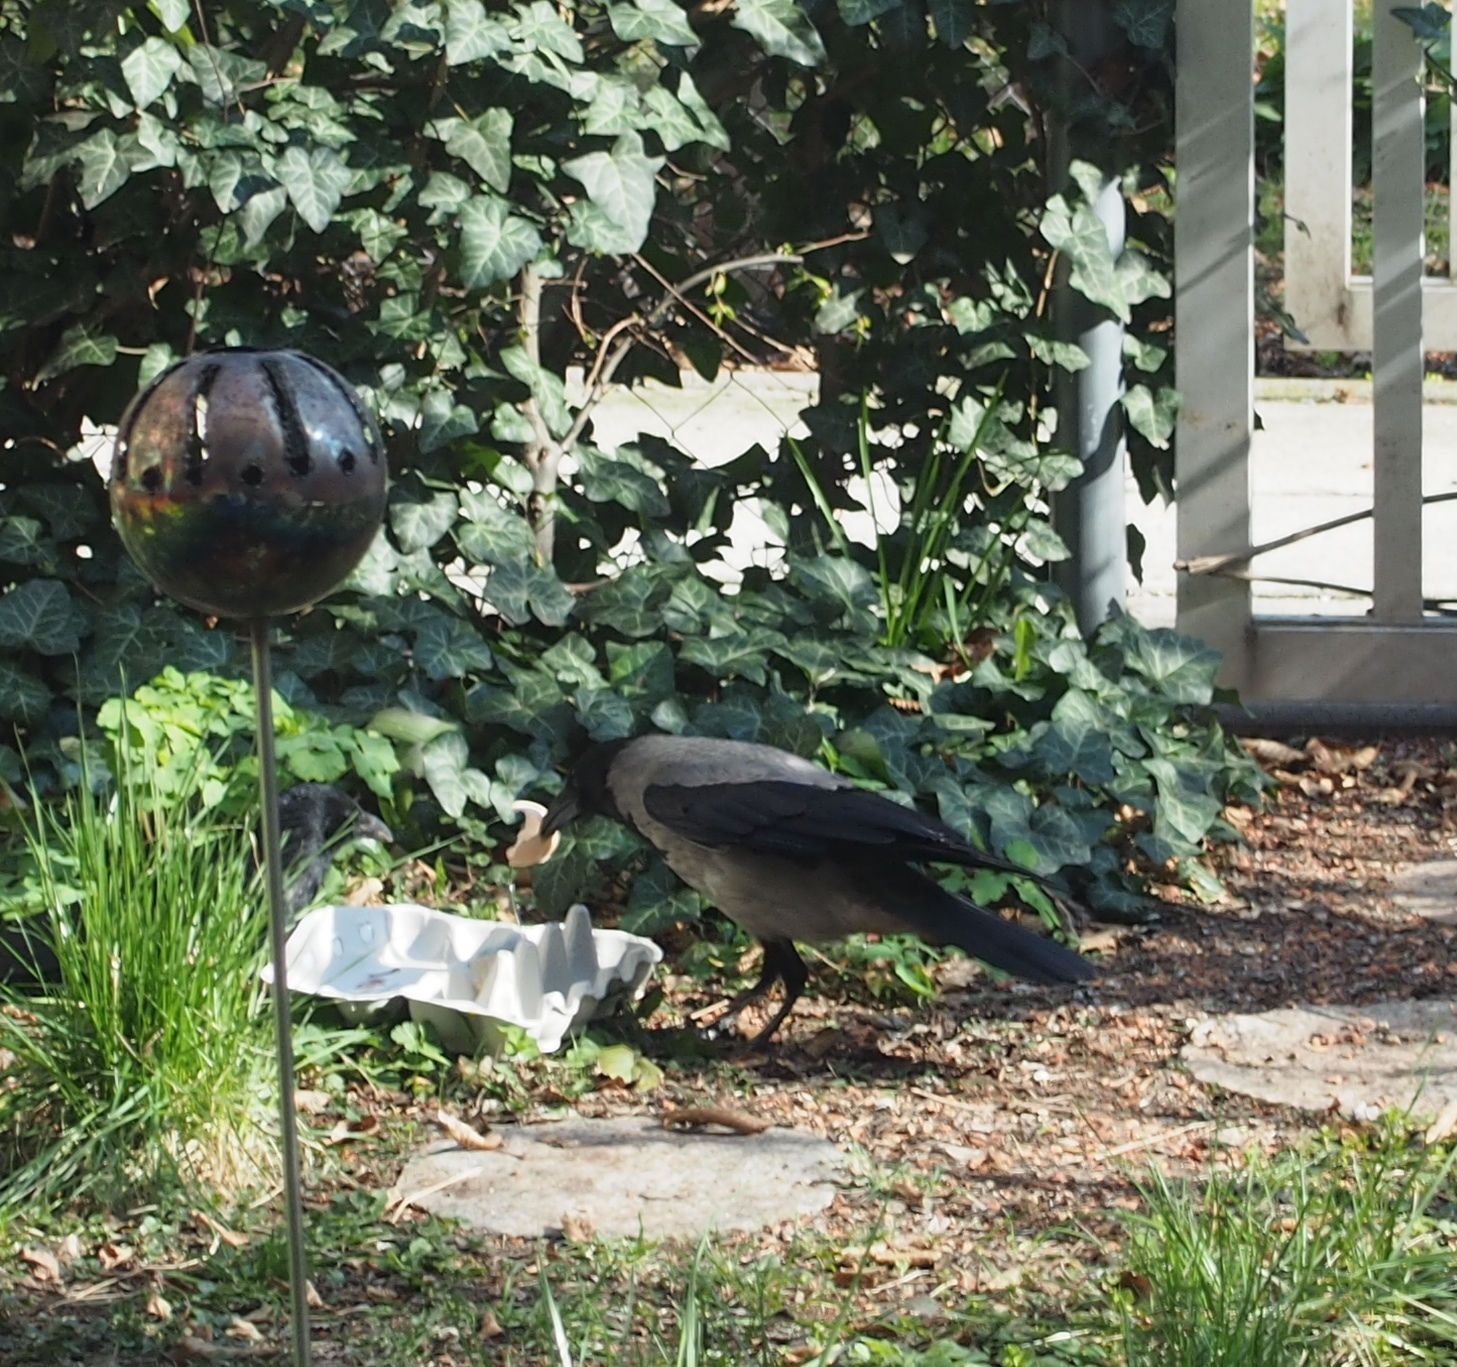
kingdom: Animalia
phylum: Chordata
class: Aves
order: Passeriformes
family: Corvidae
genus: Corvus
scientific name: Corvus cornix
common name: Hooded crow
